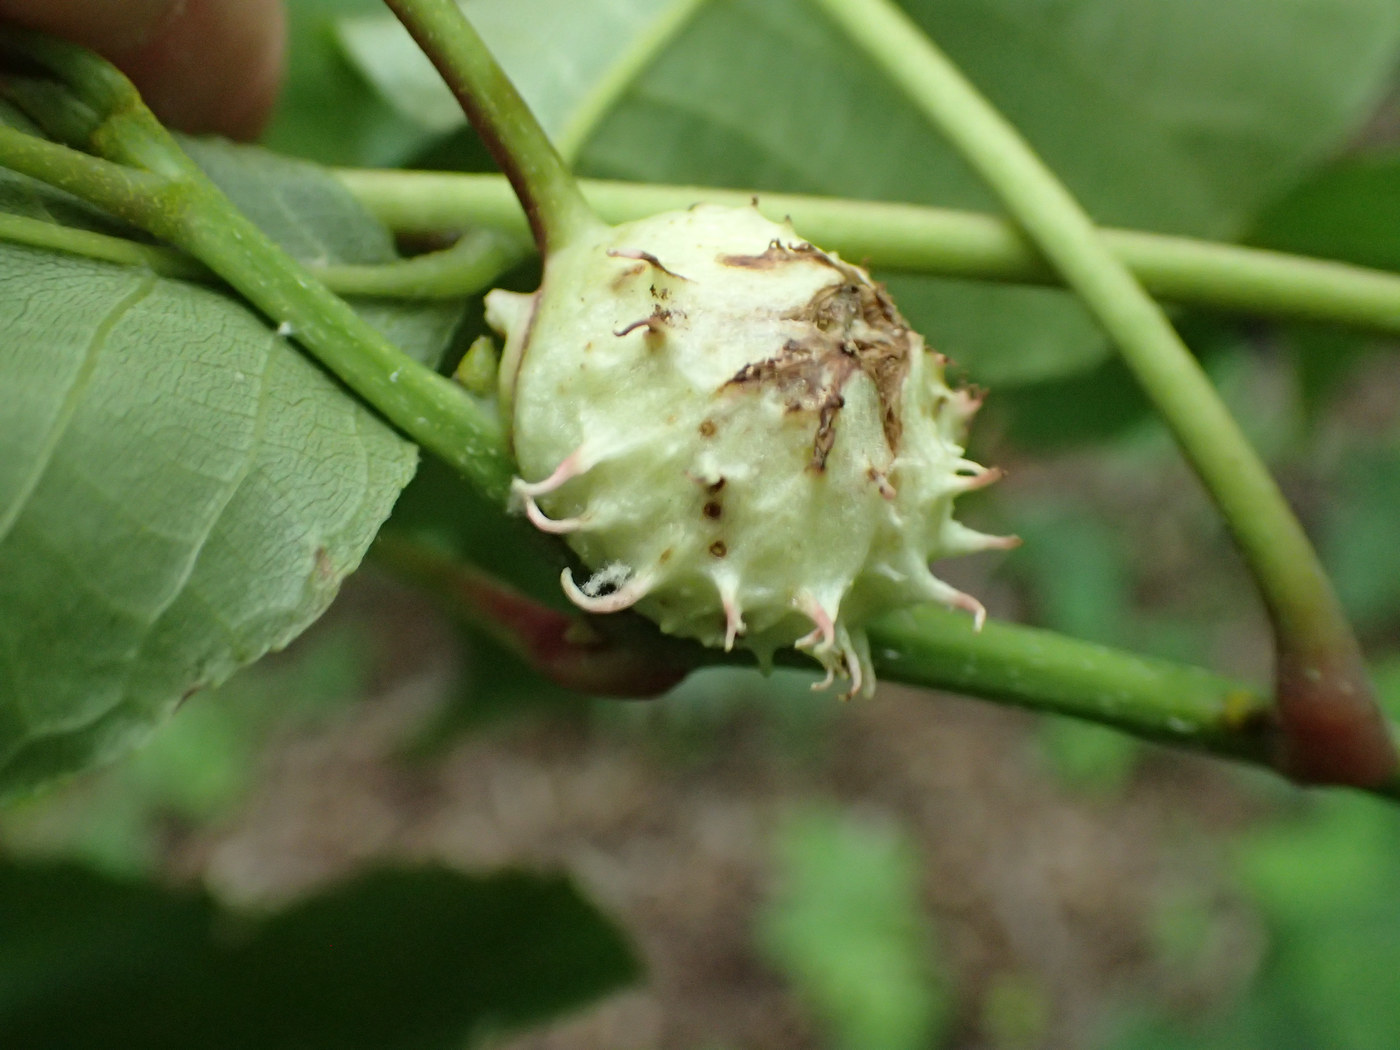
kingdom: Animalia
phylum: Arthropoda
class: Insecta
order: Hemiptera
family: Phylloxeridae
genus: Phylloxera
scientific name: Phylloxera spinosa
